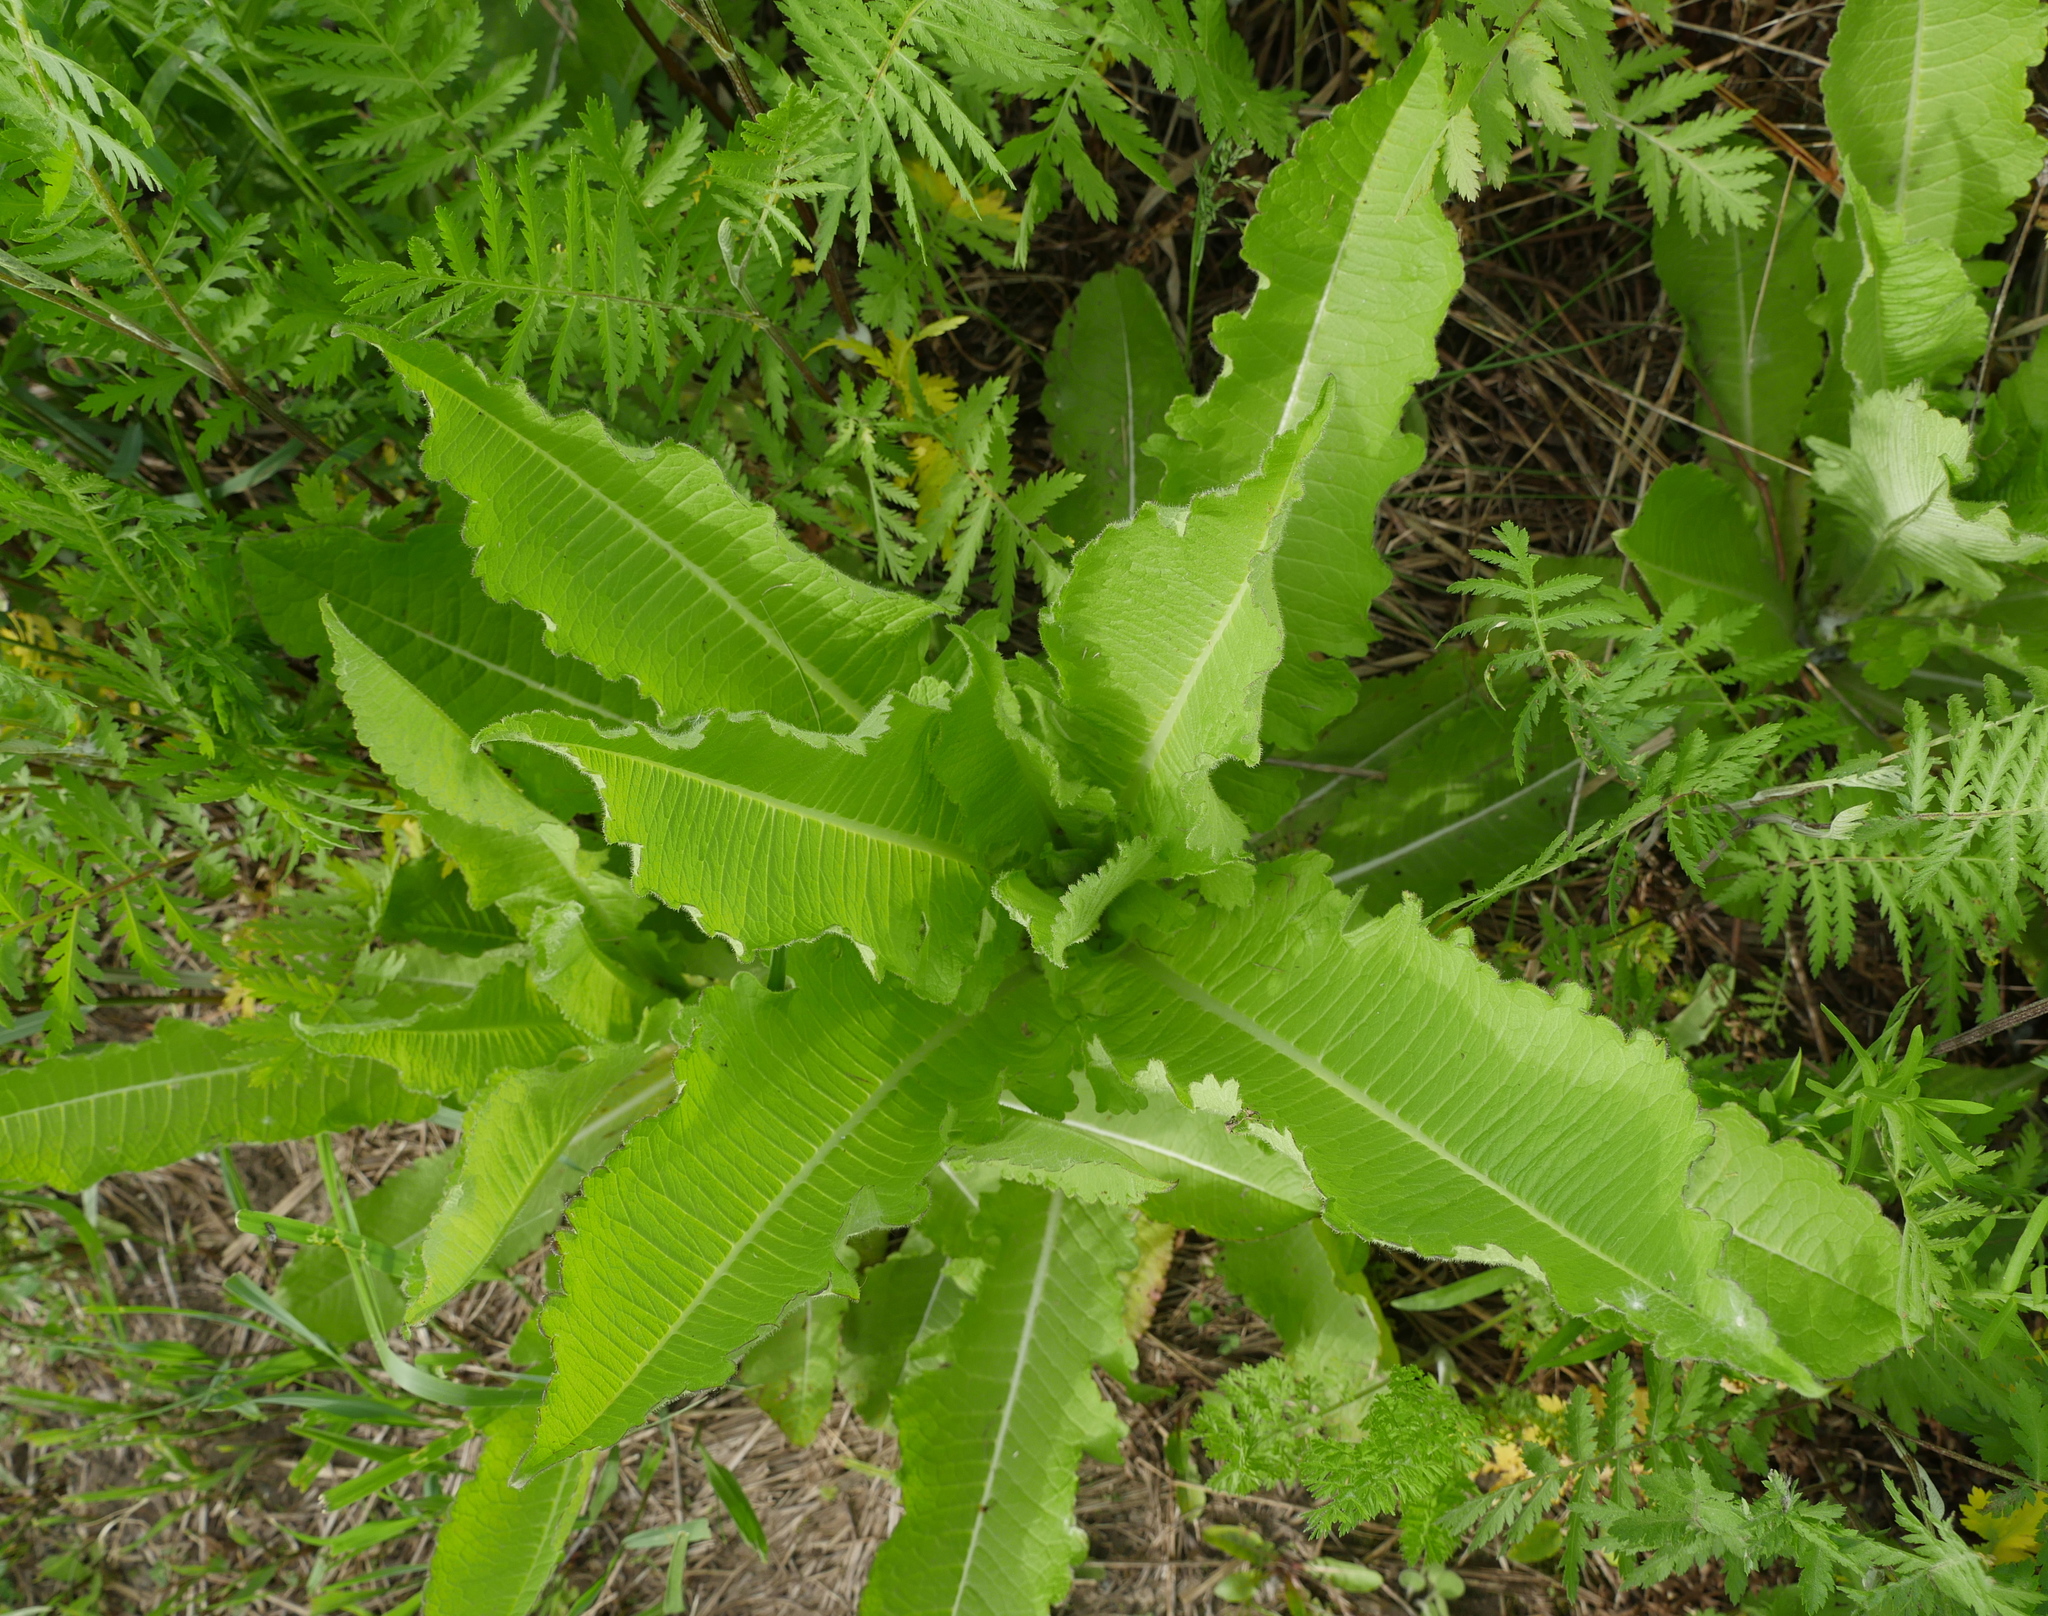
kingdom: Plantae
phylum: Tracheophyta
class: Magnoliopsida
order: Dipsacales
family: Caprifoliaceae
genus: Dipsacus
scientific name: Dipsacus fullonum
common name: Teasel
